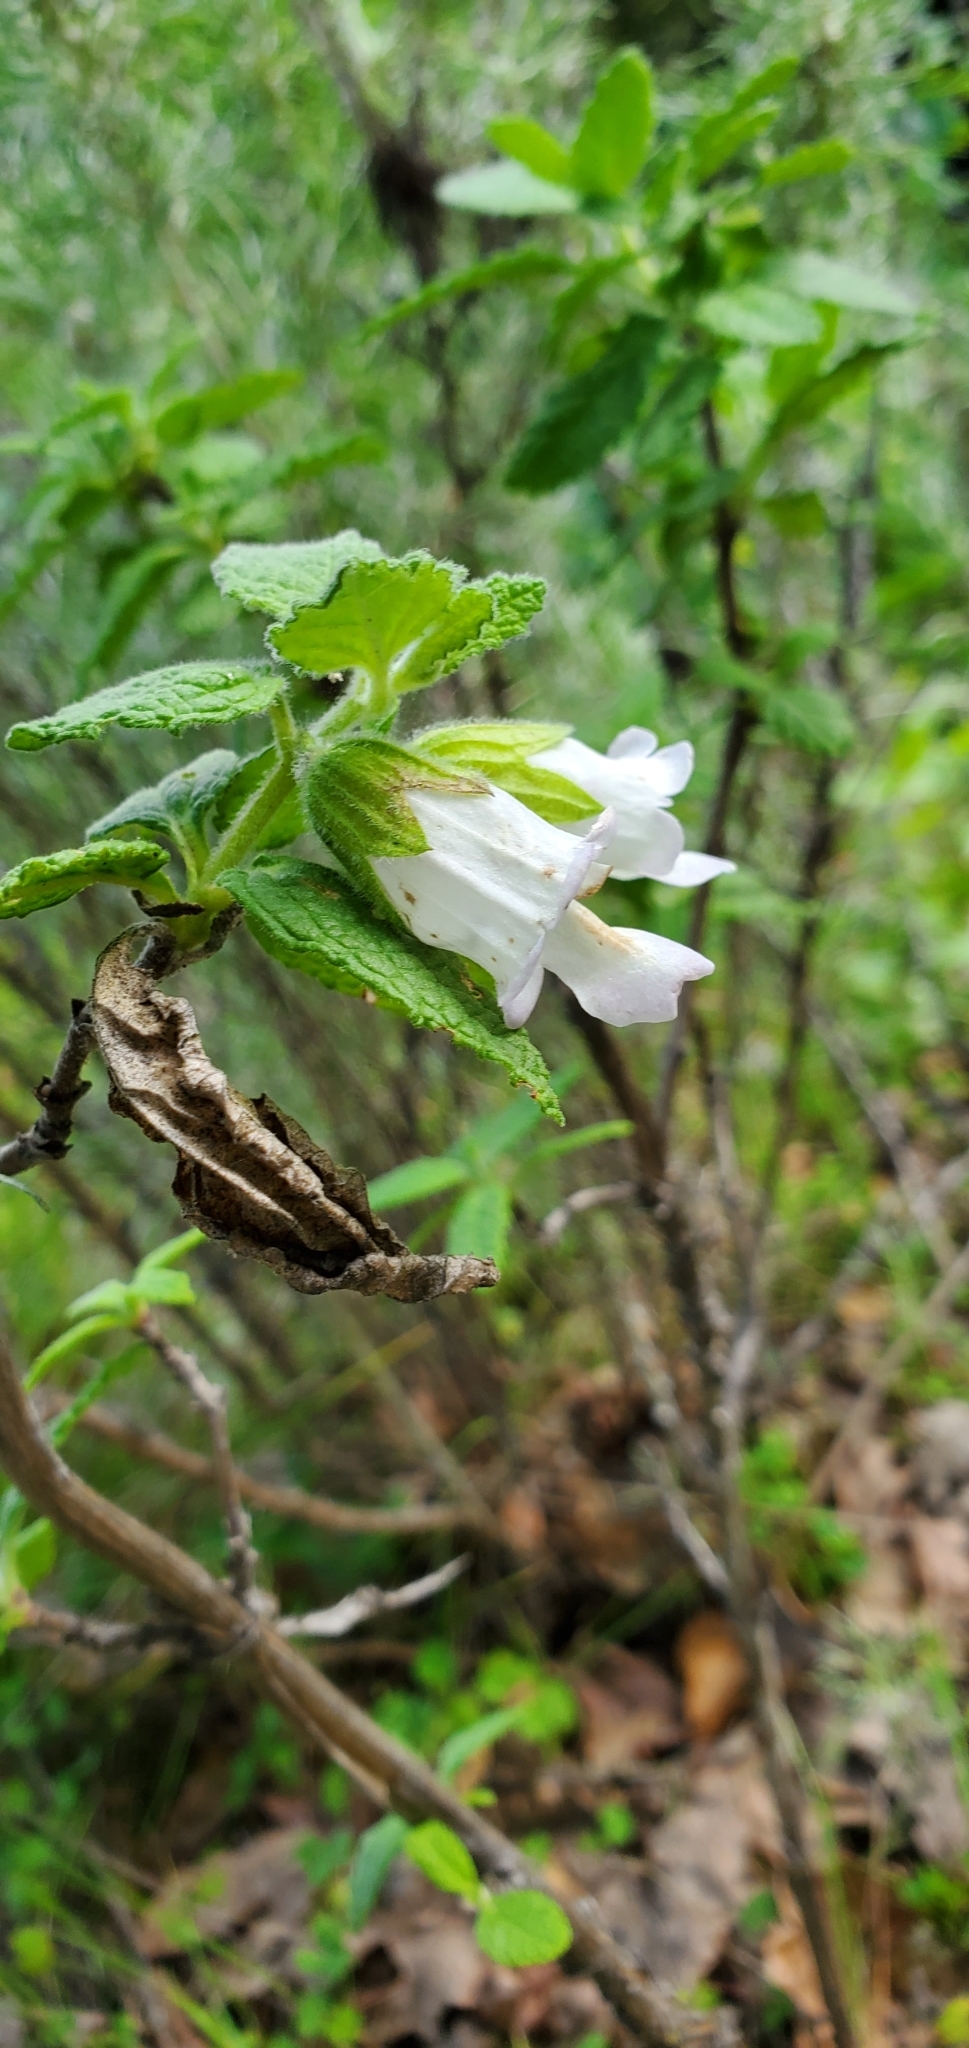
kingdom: Plantae
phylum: Tracheophyta
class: Magnoliopsida
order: Lamiales
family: Lamiaceae
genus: Lepechinia
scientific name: Lepechinia calycina
